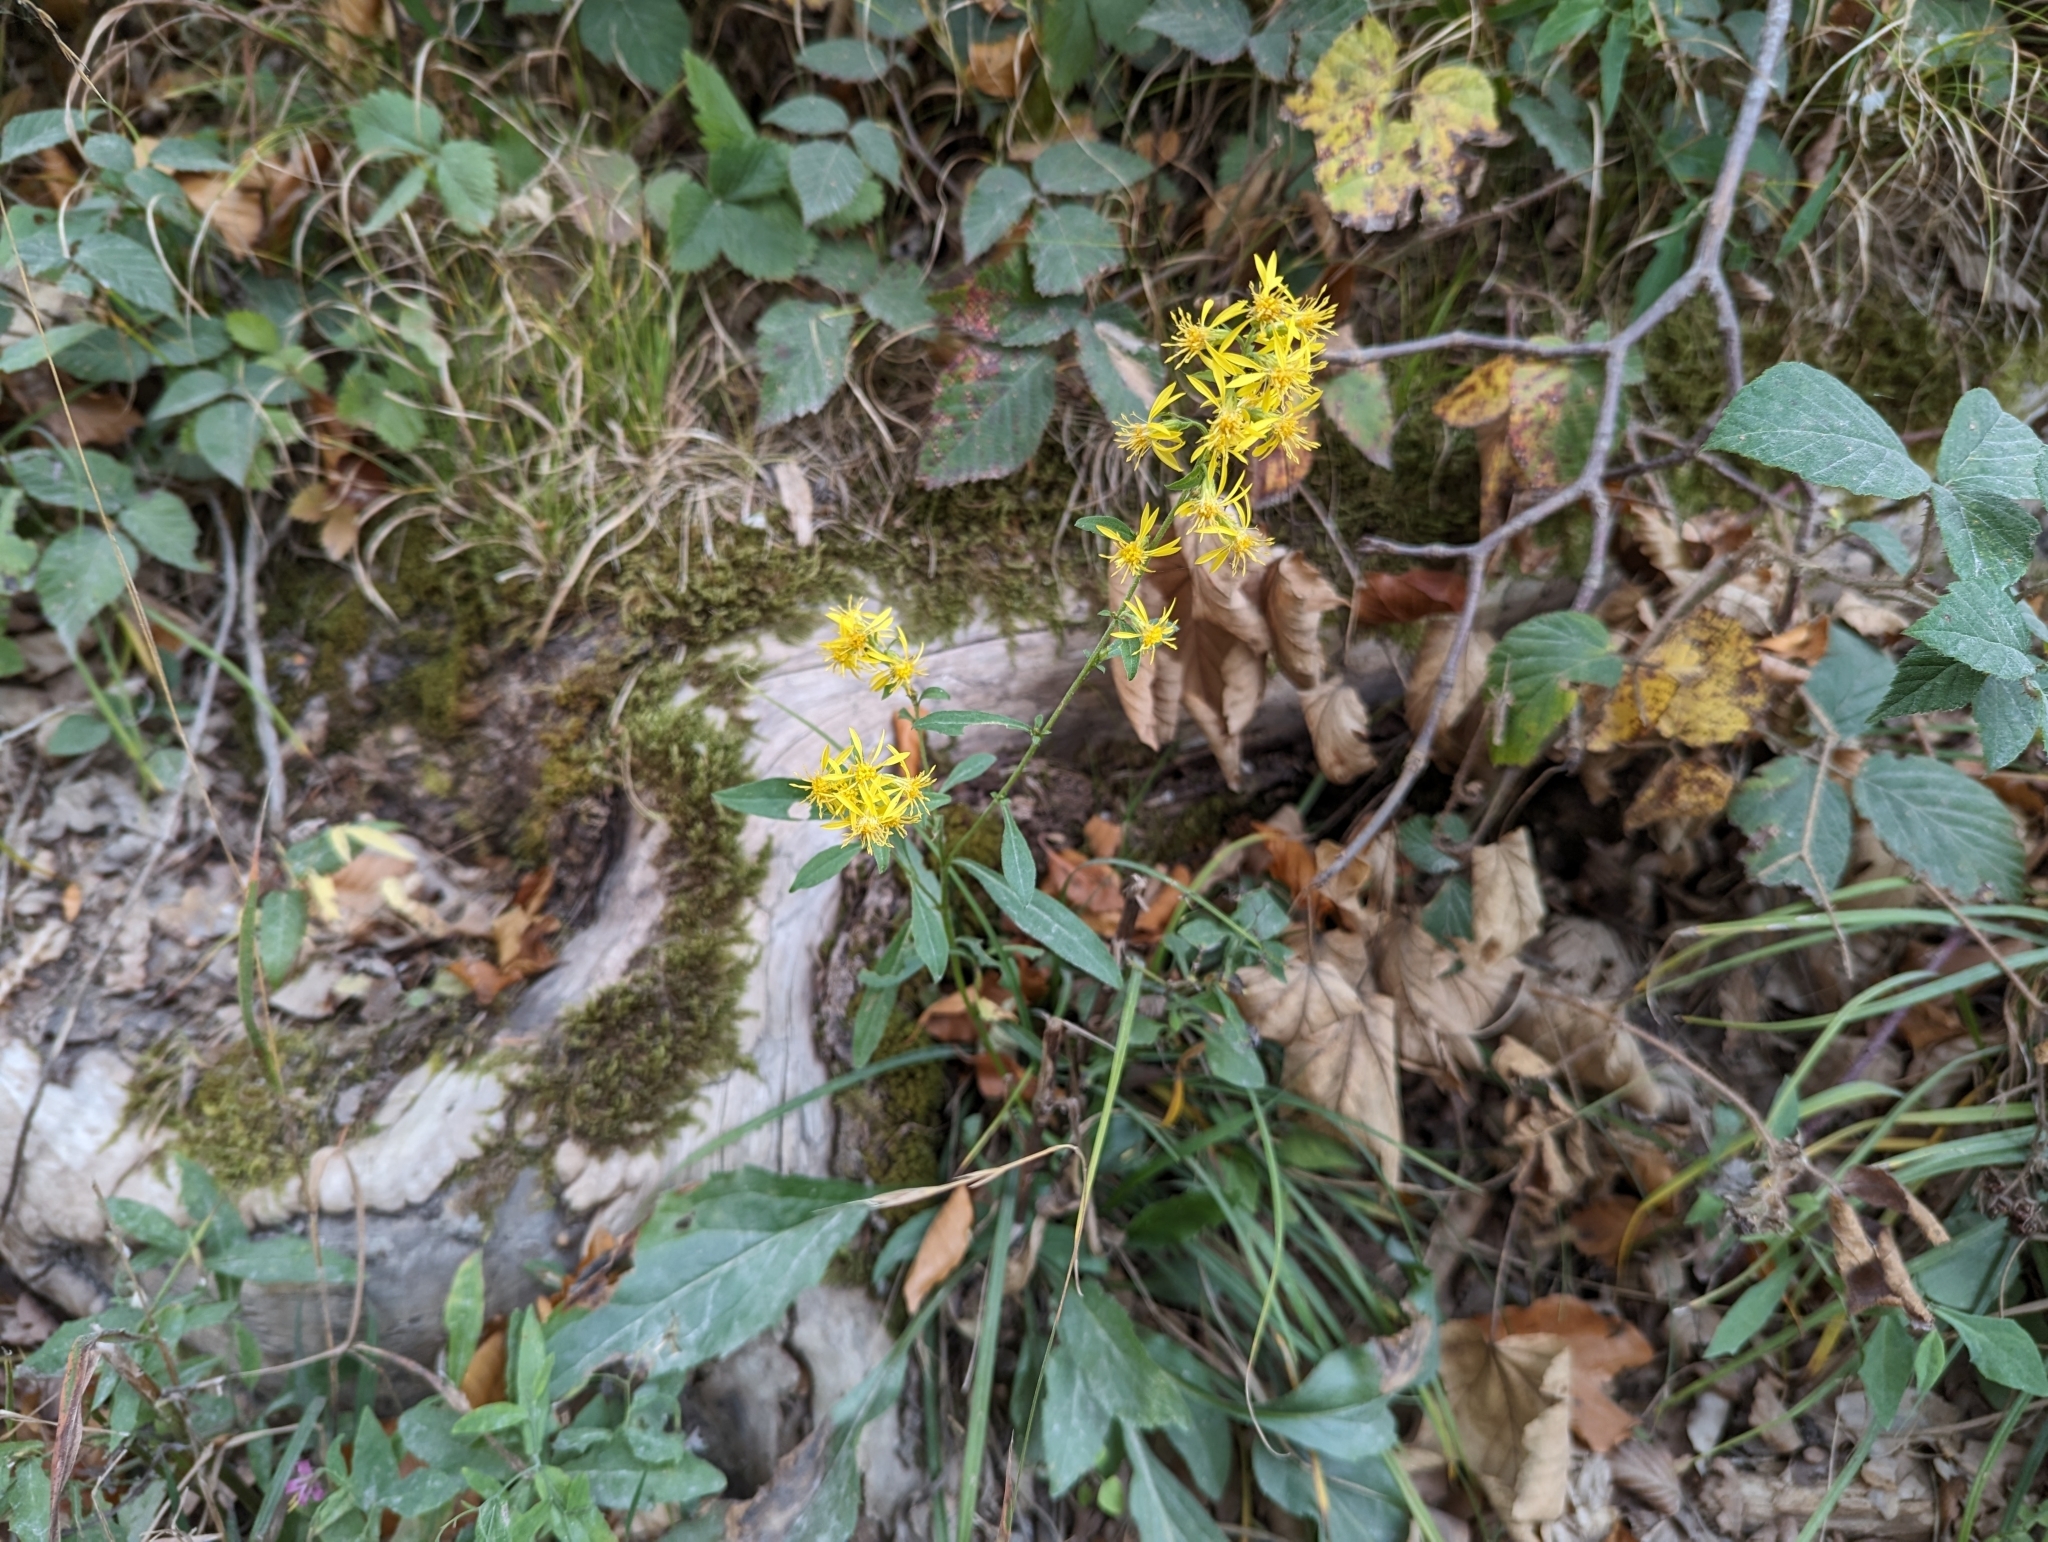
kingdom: Plantae
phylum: Tracheophyta
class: Magnoliopsida
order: Asterales
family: Asteraceae
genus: Solidago
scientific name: Solidago virgaurea
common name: Goldenrod
